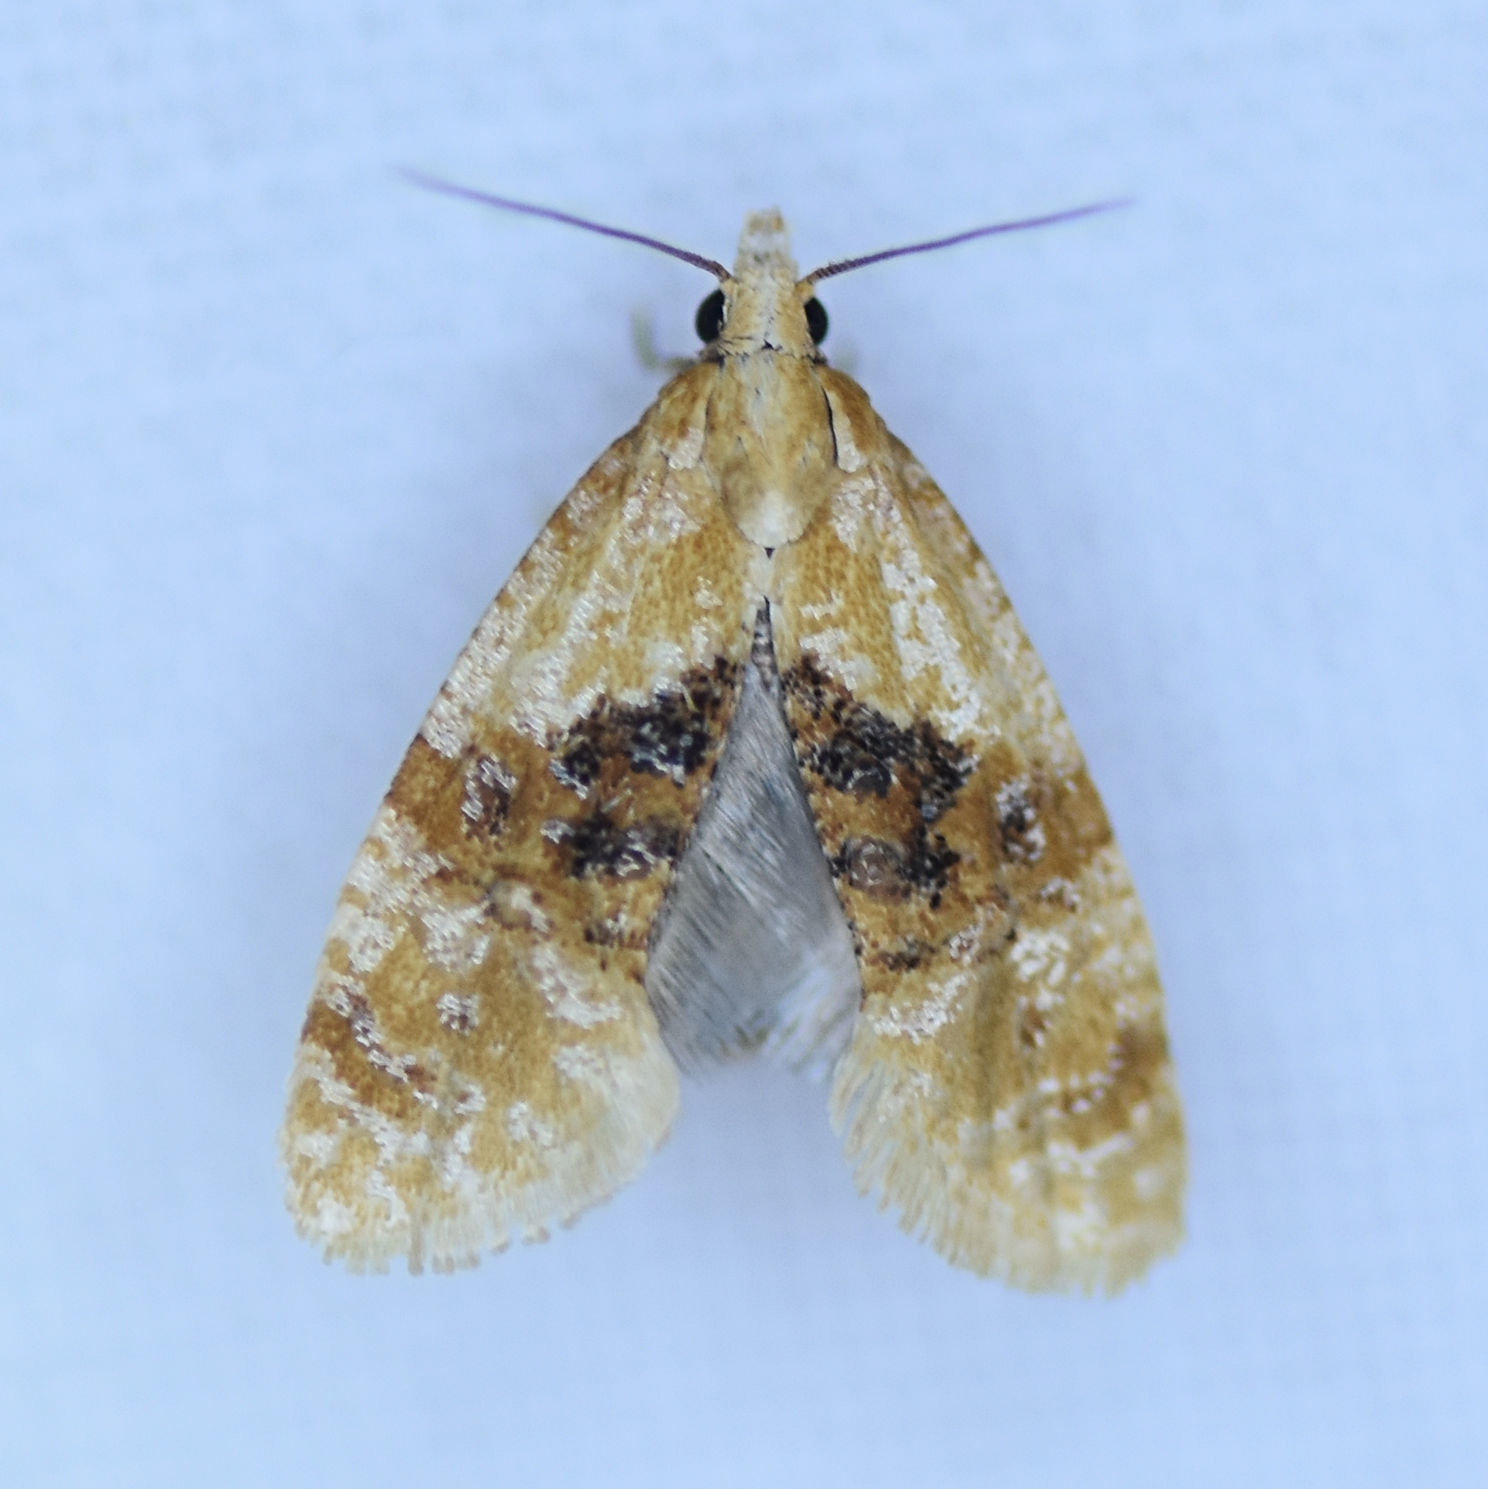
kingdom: Animalia
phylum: Arthropoda
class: Insecta
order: Lepidoptera
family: Tortricidae
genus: Cochylis
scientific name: Cochylis Cochylichroa hospes
